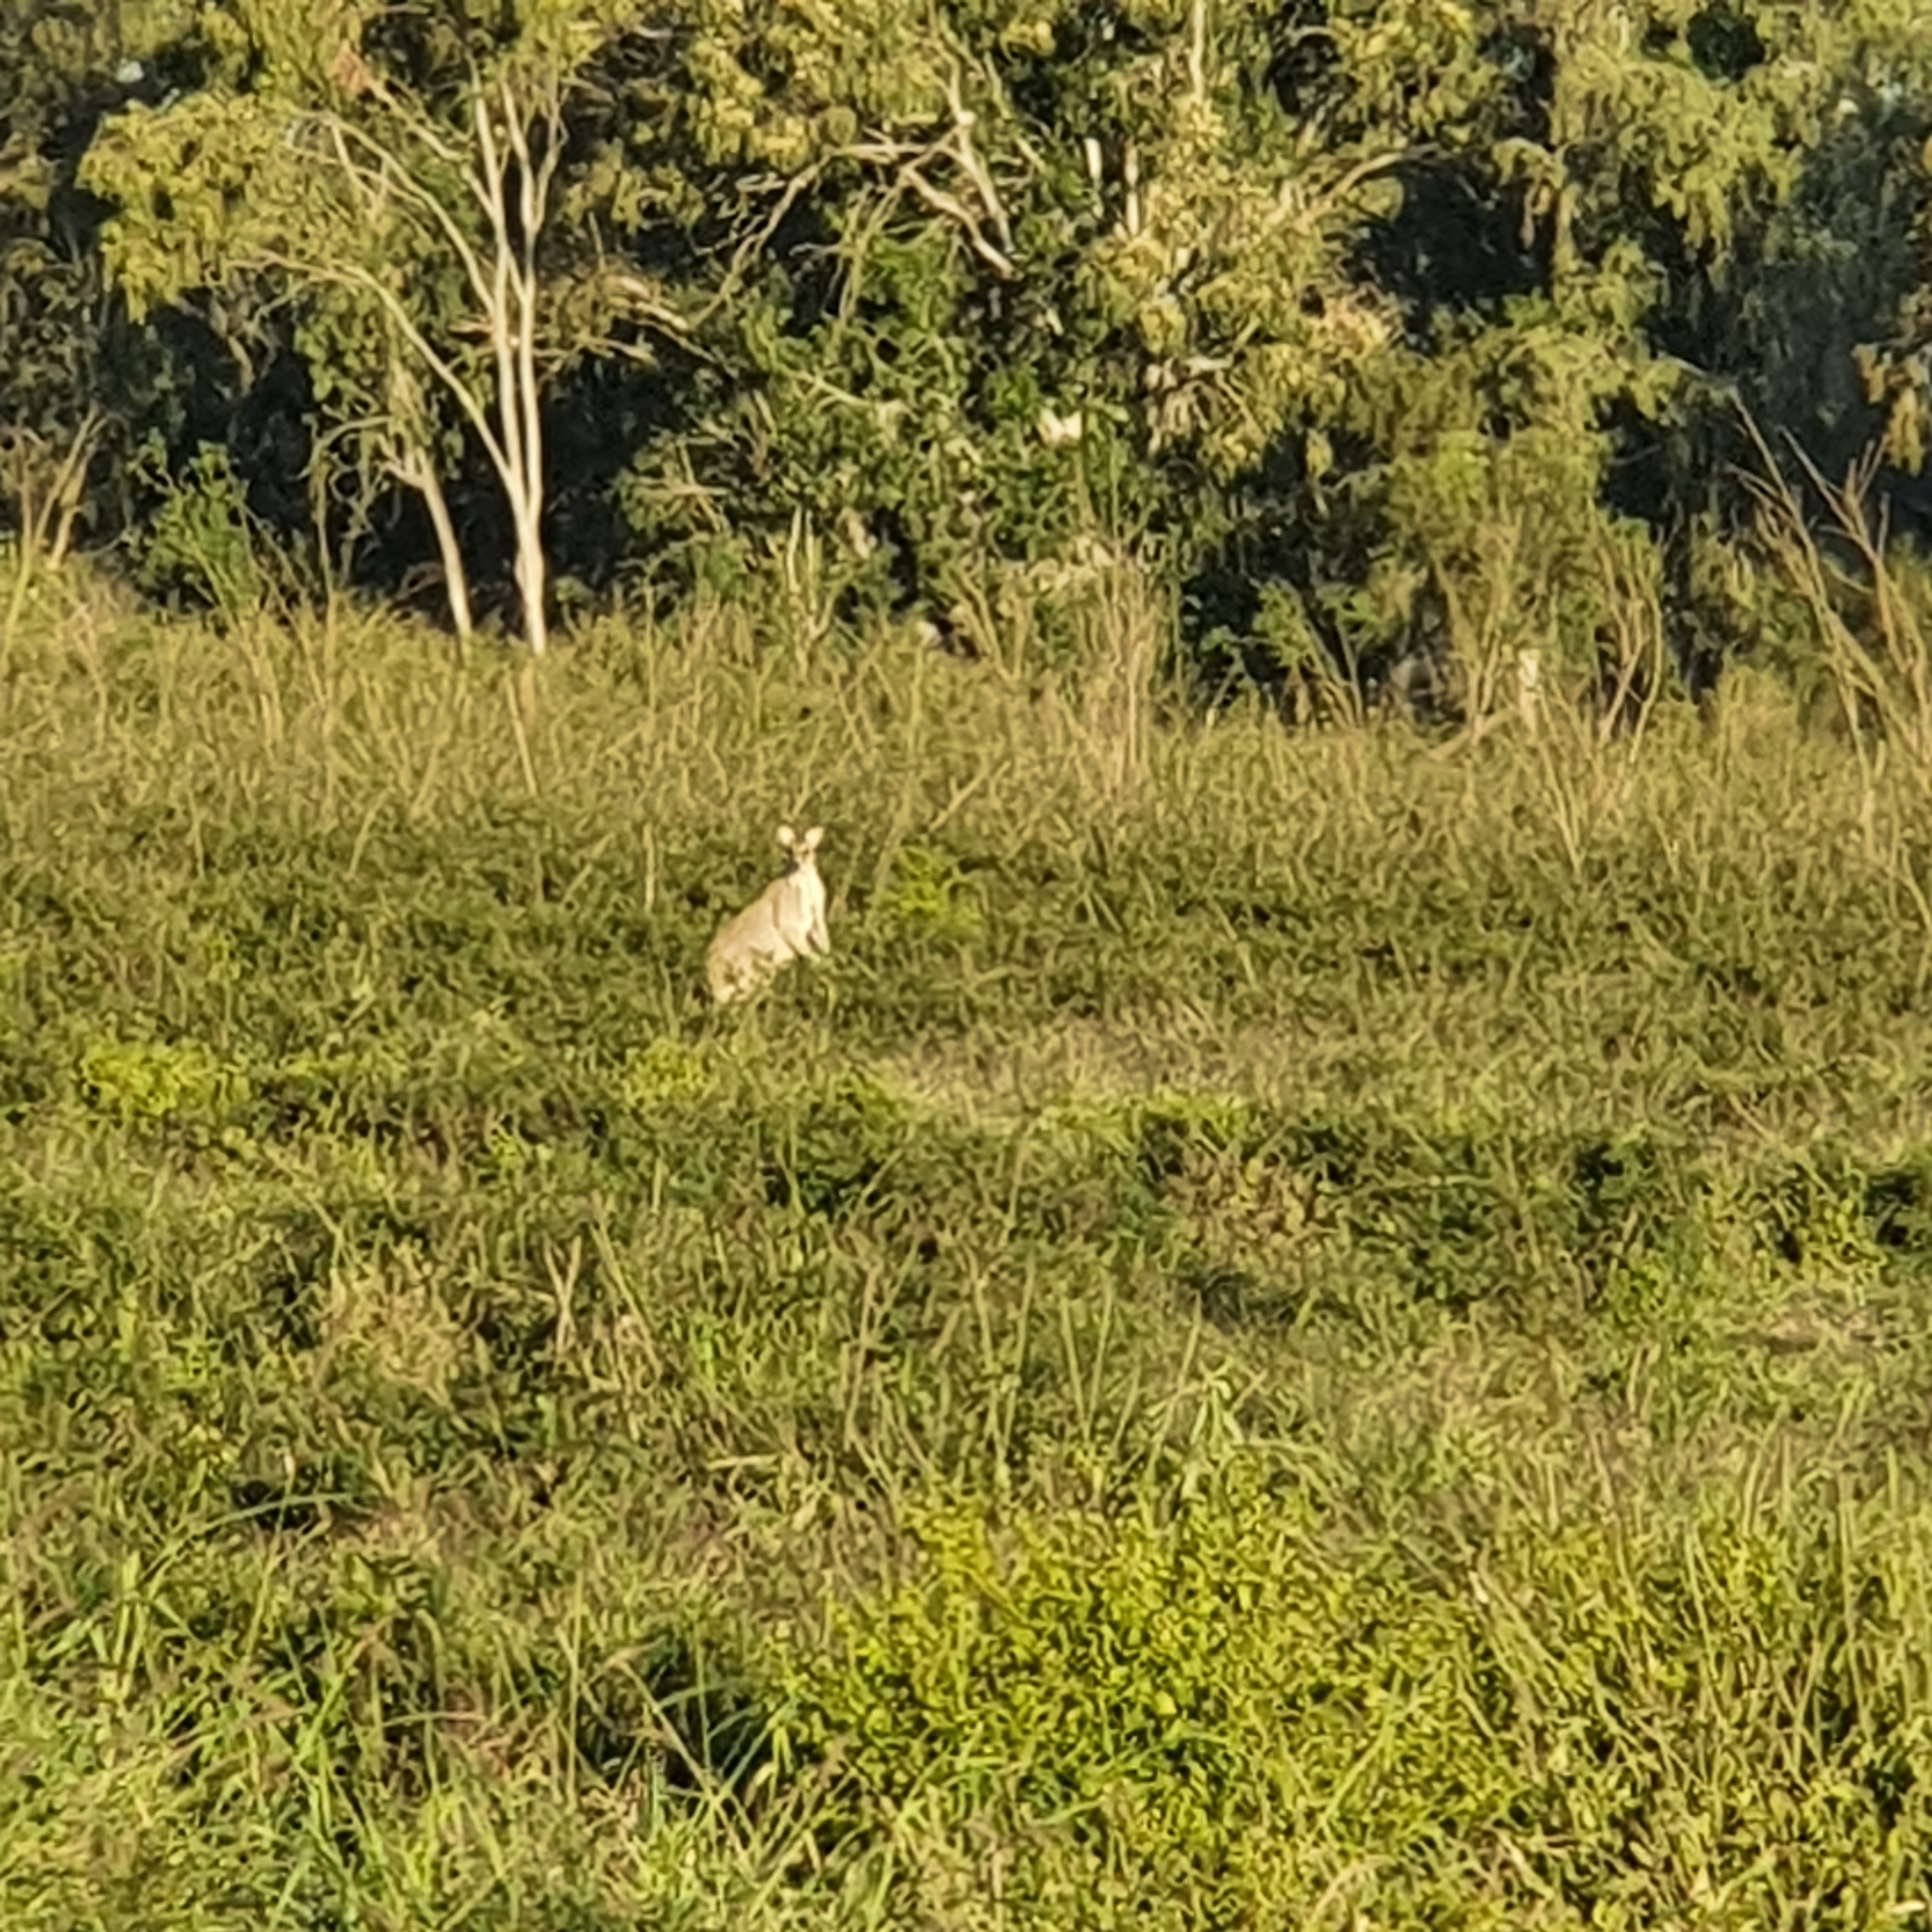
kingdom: Animalia
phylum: Chordata
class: Mammalia
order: Diprotodontia
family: Macropodidae
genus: Macropus
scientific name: Macropus agilis
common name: Agile wallaby
